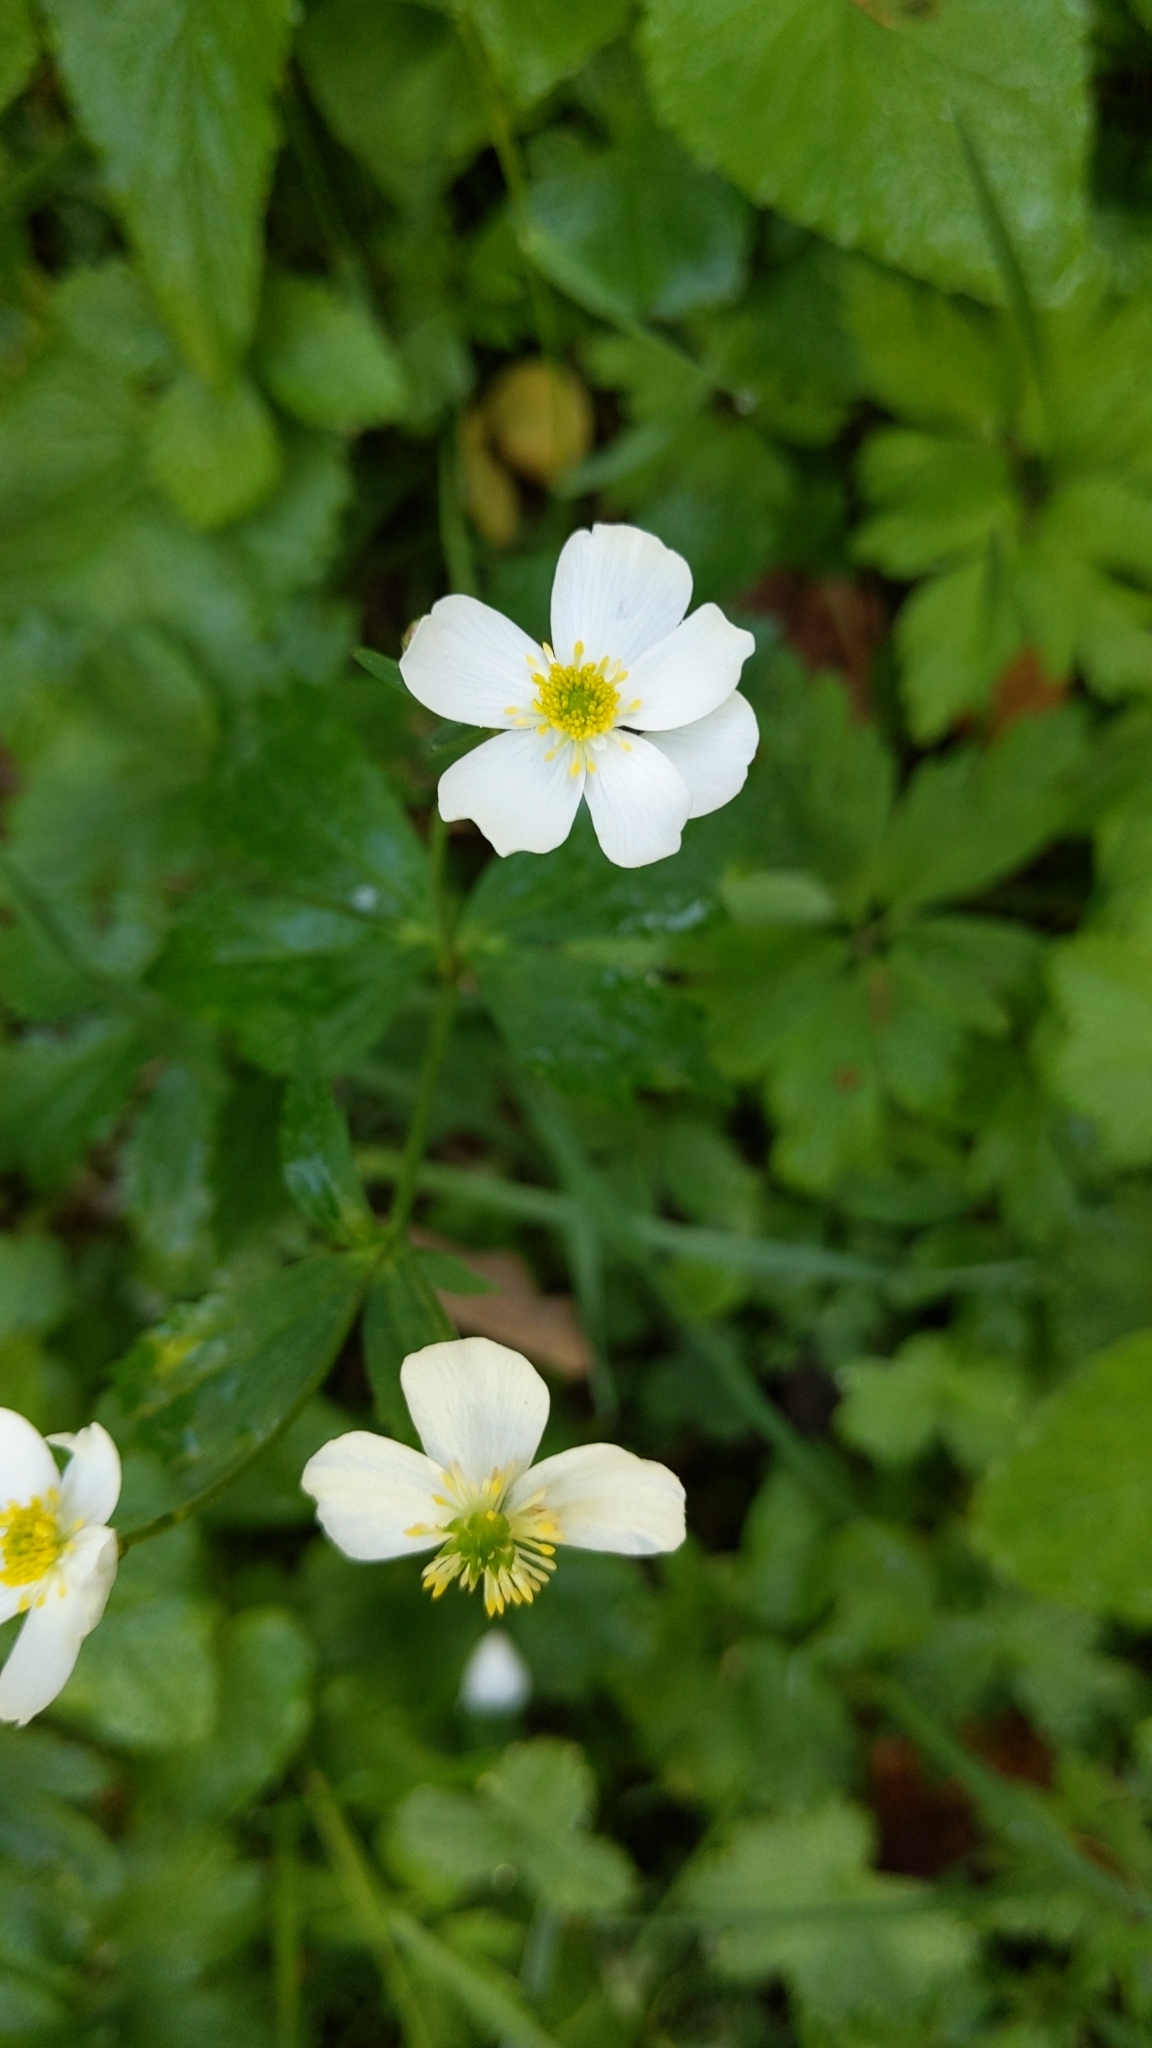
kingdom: Plantae
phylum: Tracheophyta
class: Magnoliopsida
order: Ranunculales
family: Ranunculaceae
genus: Ranunculus
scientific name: Ranunculus aconitifolius
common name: Aconite-leaved buttercup
